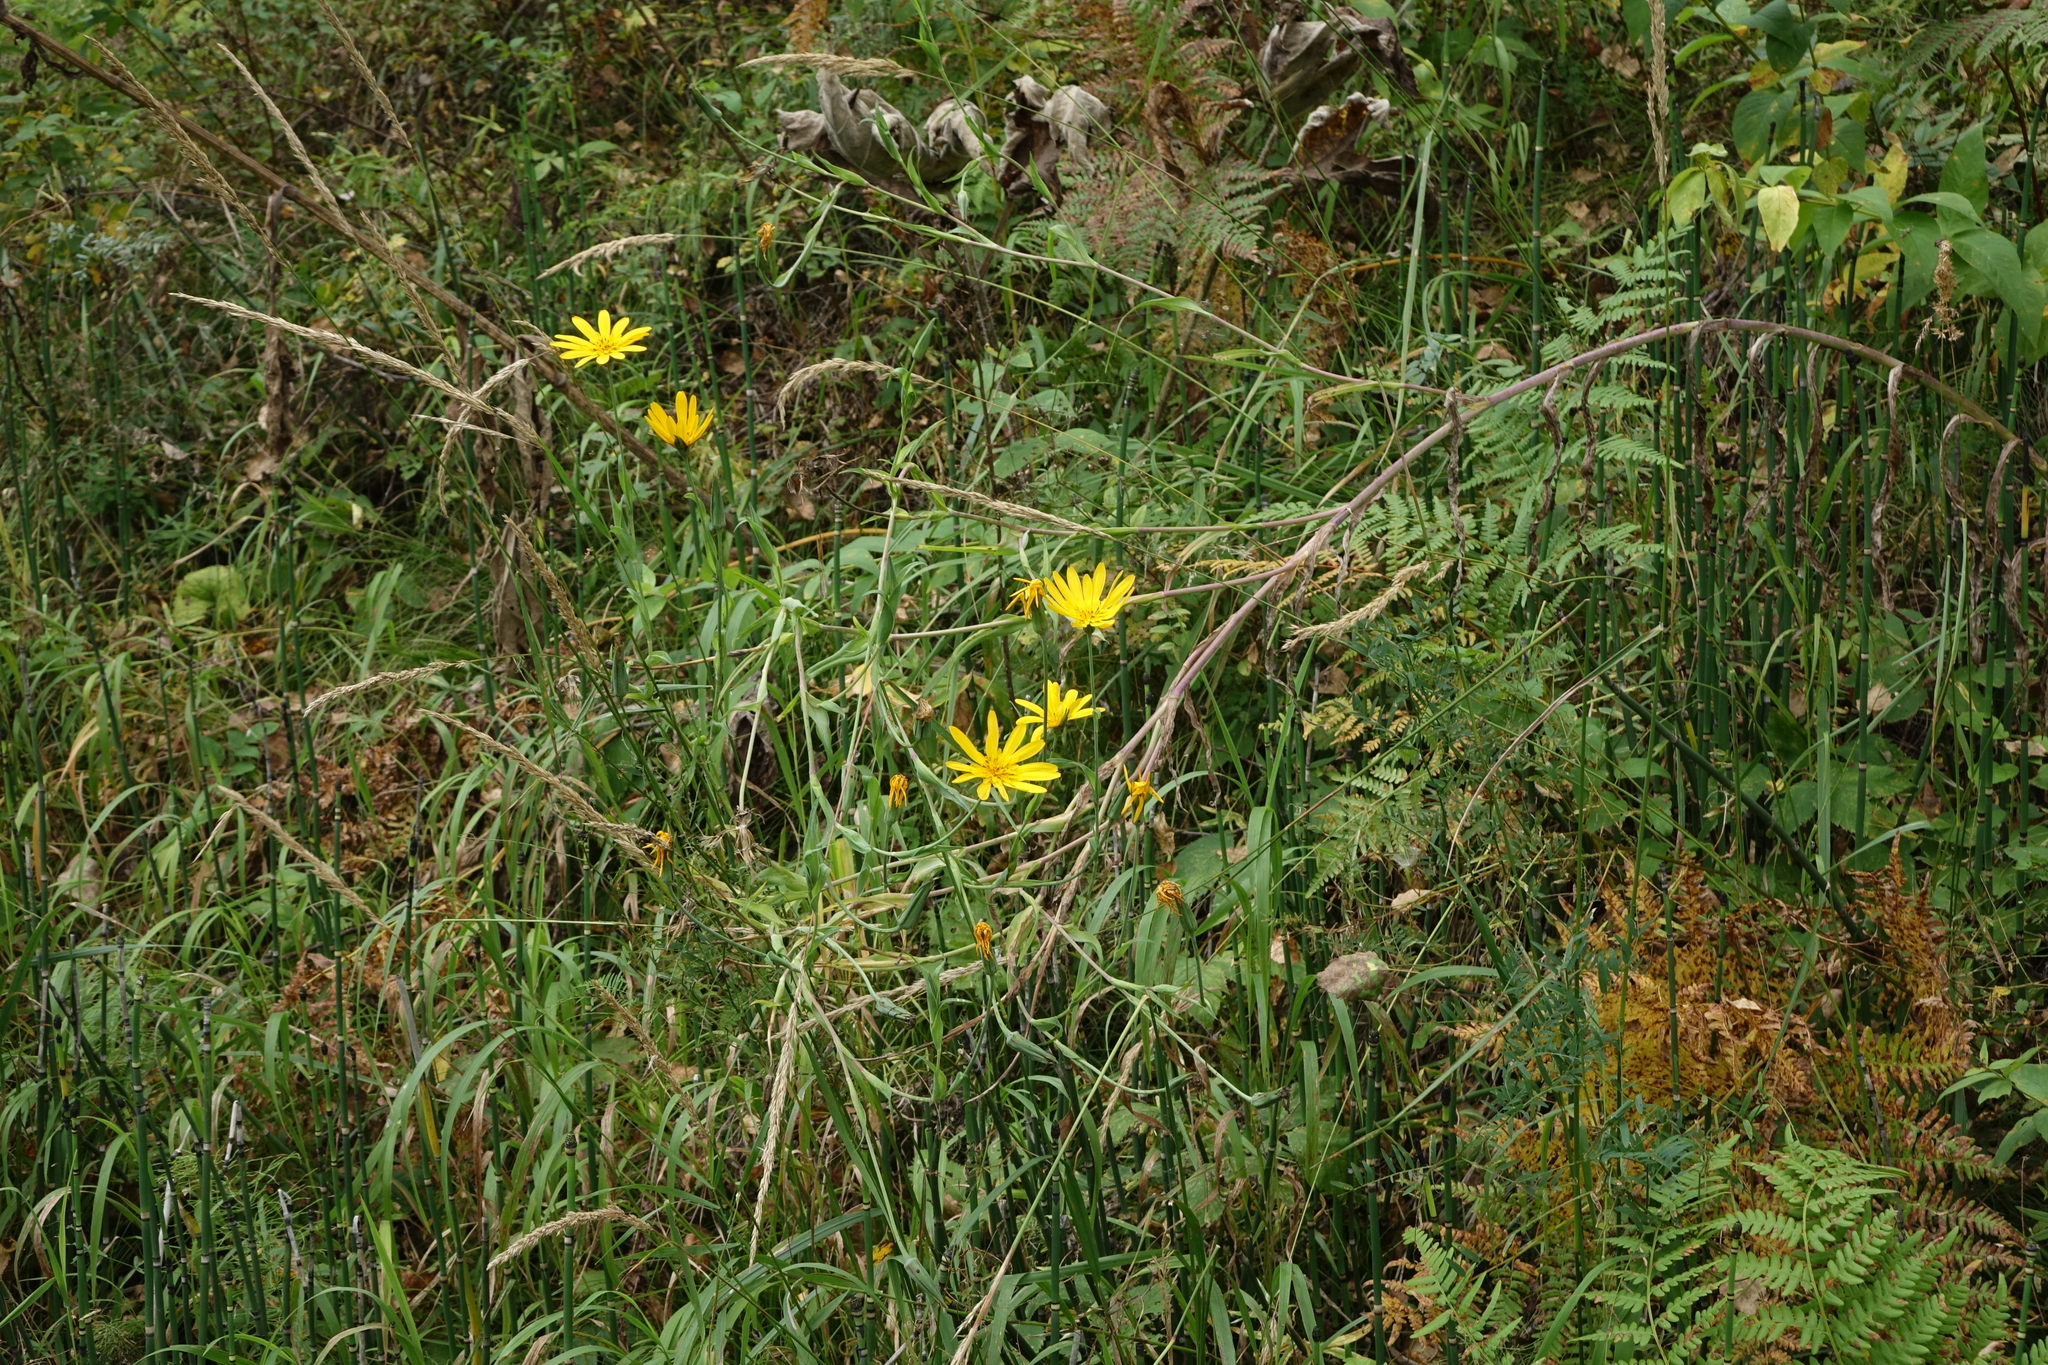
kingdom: Plantae
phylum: Tracheophyta
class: Magnoliopsida
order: Asterales
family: Asteraceae
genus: Tragopogon
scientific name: Tragopogon orientalis
